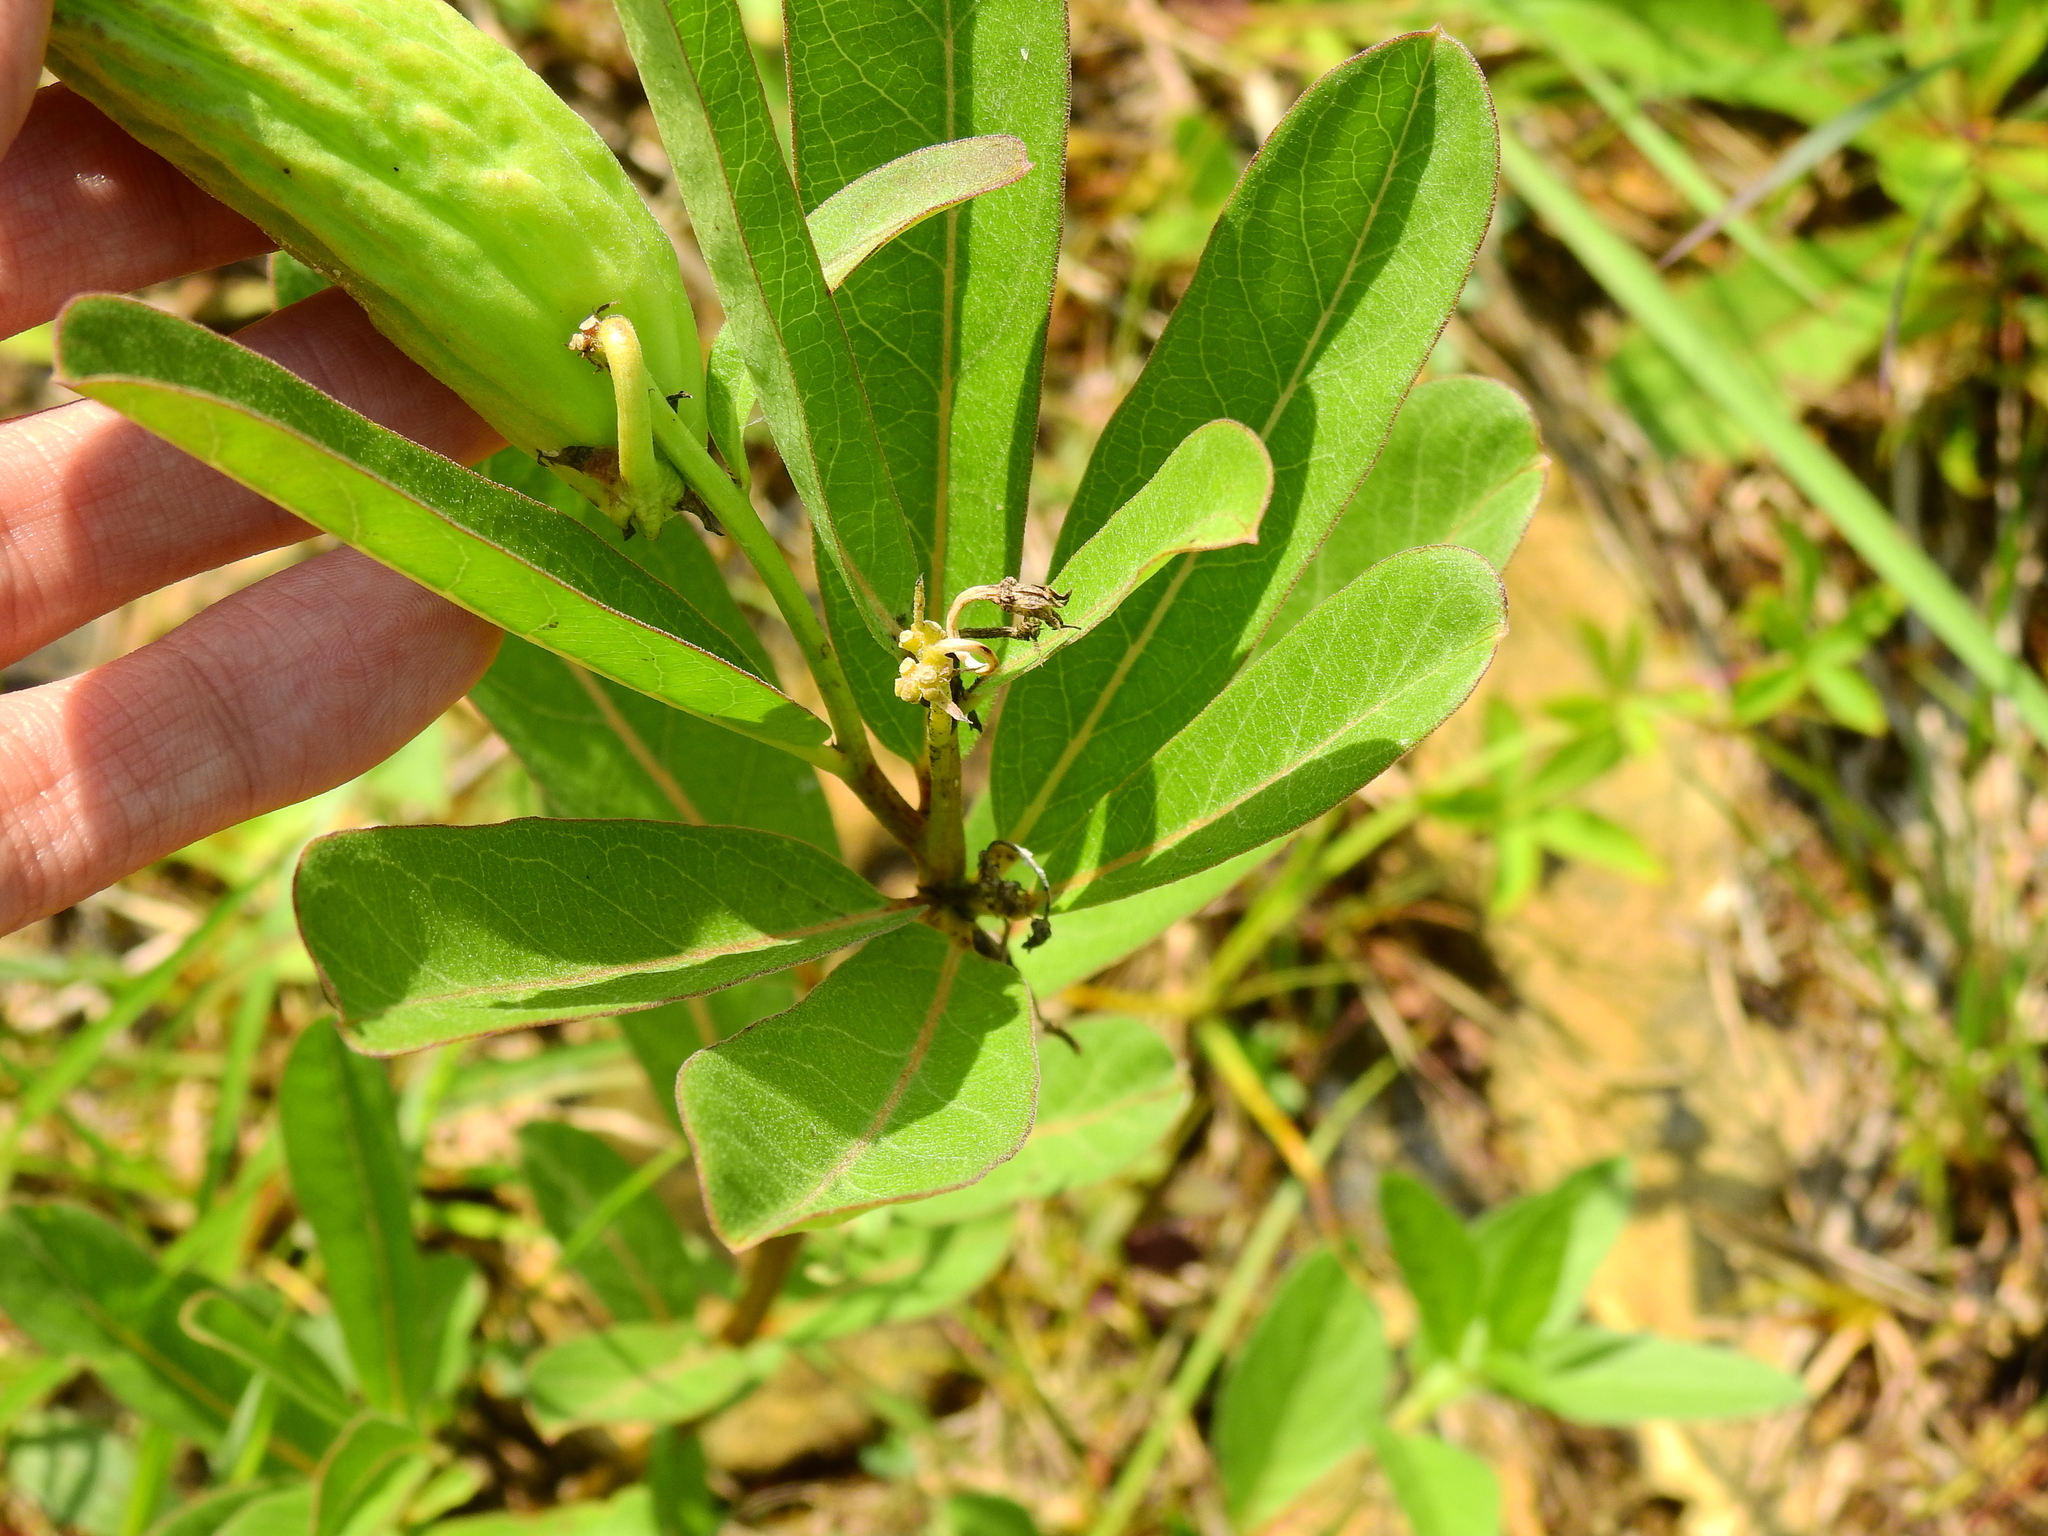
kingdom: Plantae
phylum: Tracheophyta
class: Magnoliopsida
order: Gentianales
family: Apocynaceae
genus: Asclepias
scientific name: Asclepias viridis
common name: Antelope-horns
